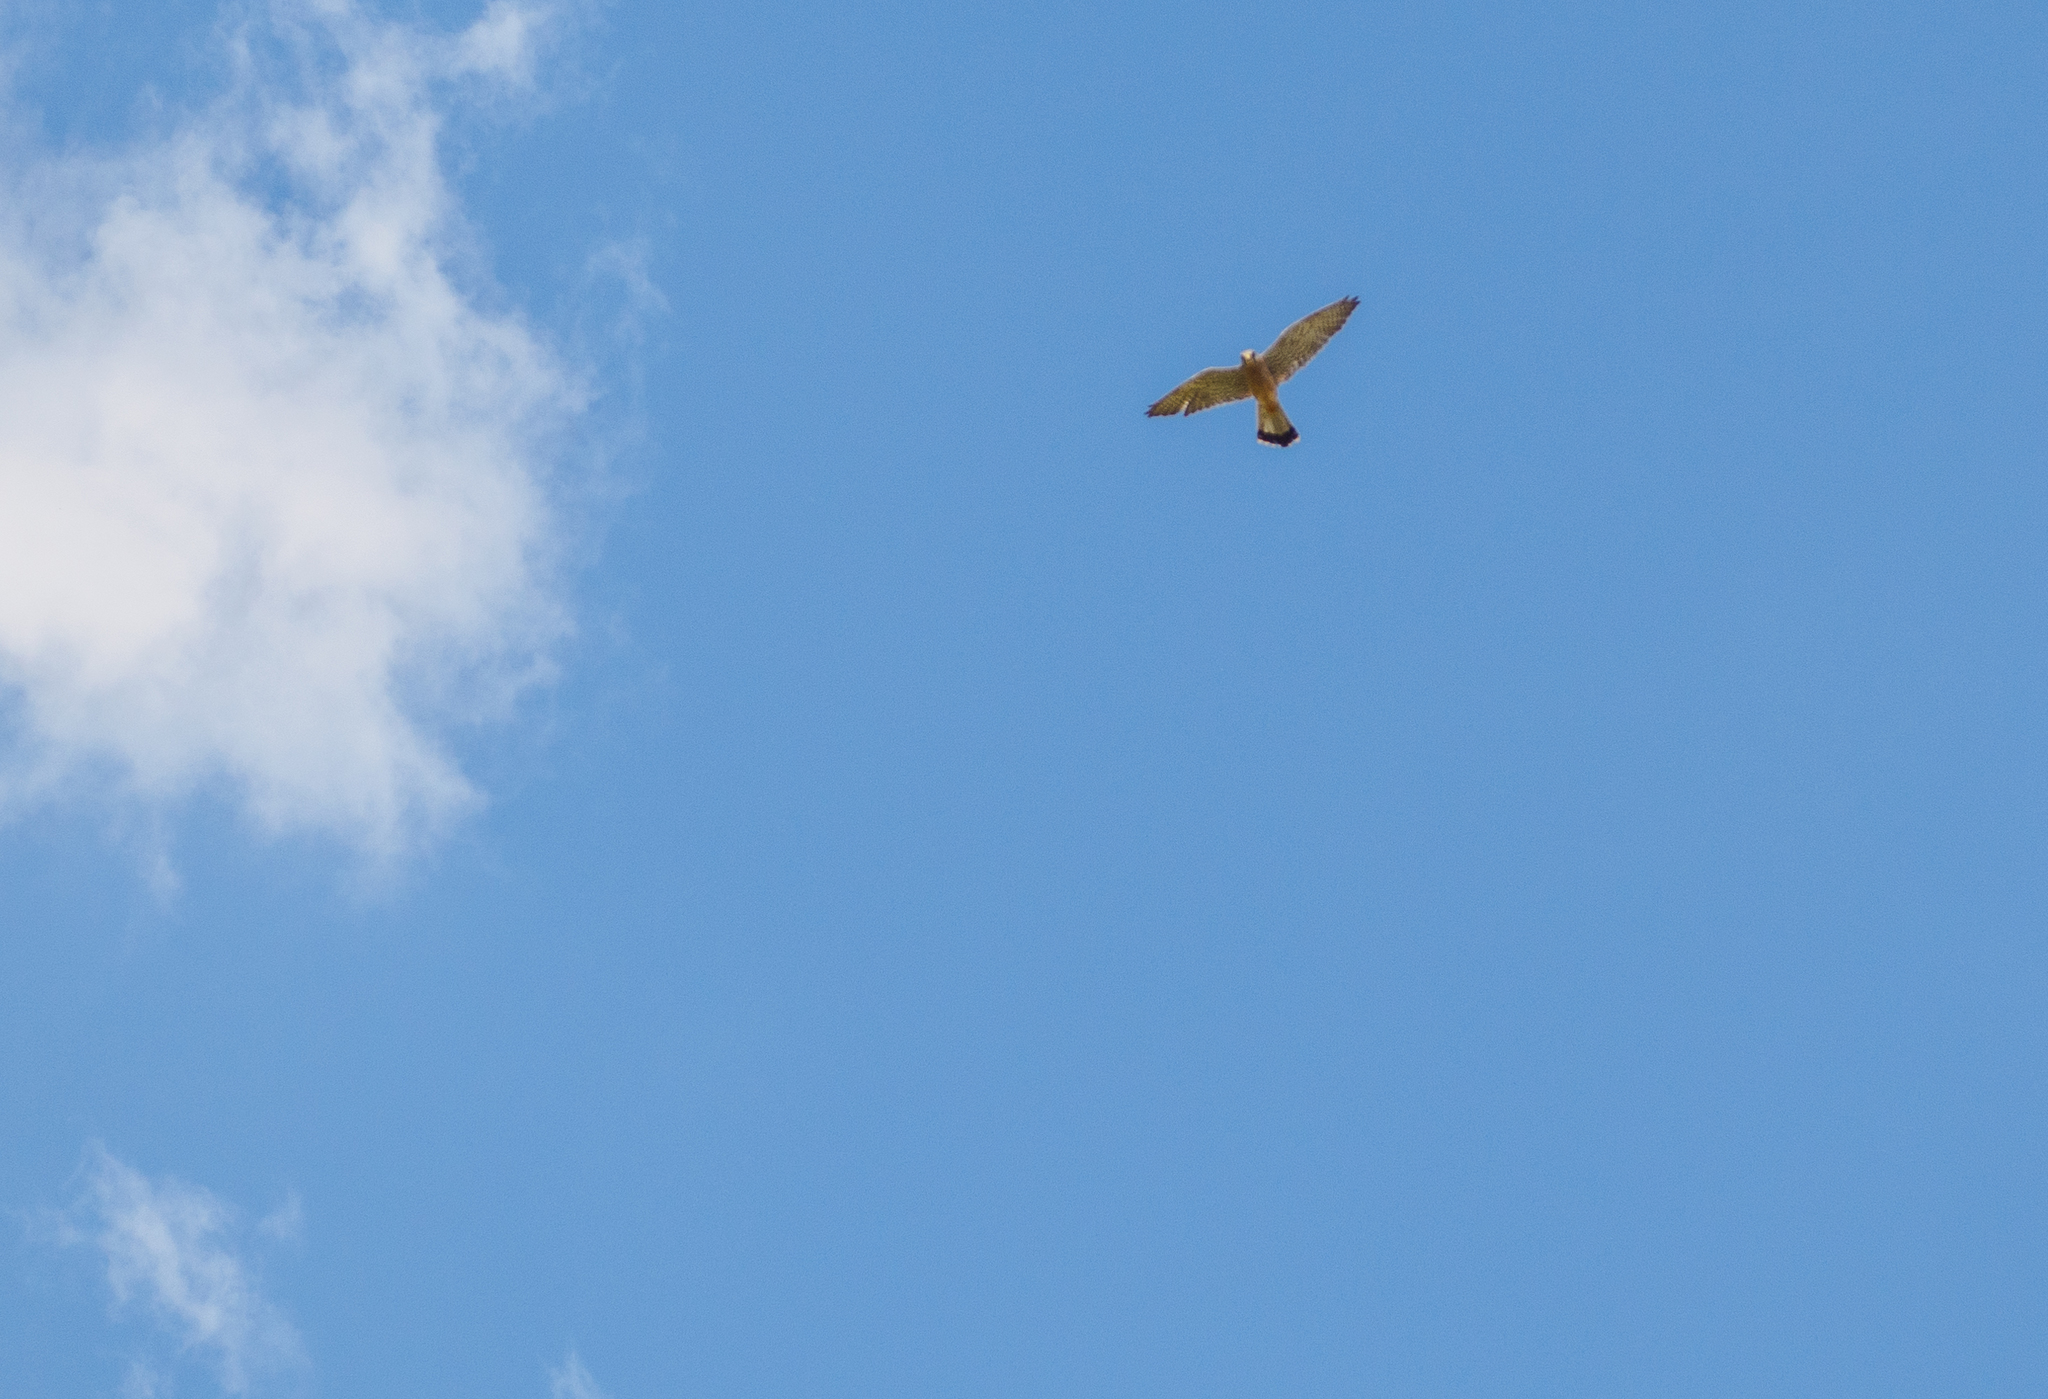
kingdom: Animalia
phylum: Chordata
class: Aves
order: Falconiformes
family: Falconidae
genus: Falco
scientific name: Falco tinnunculus
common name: Common kestrel
